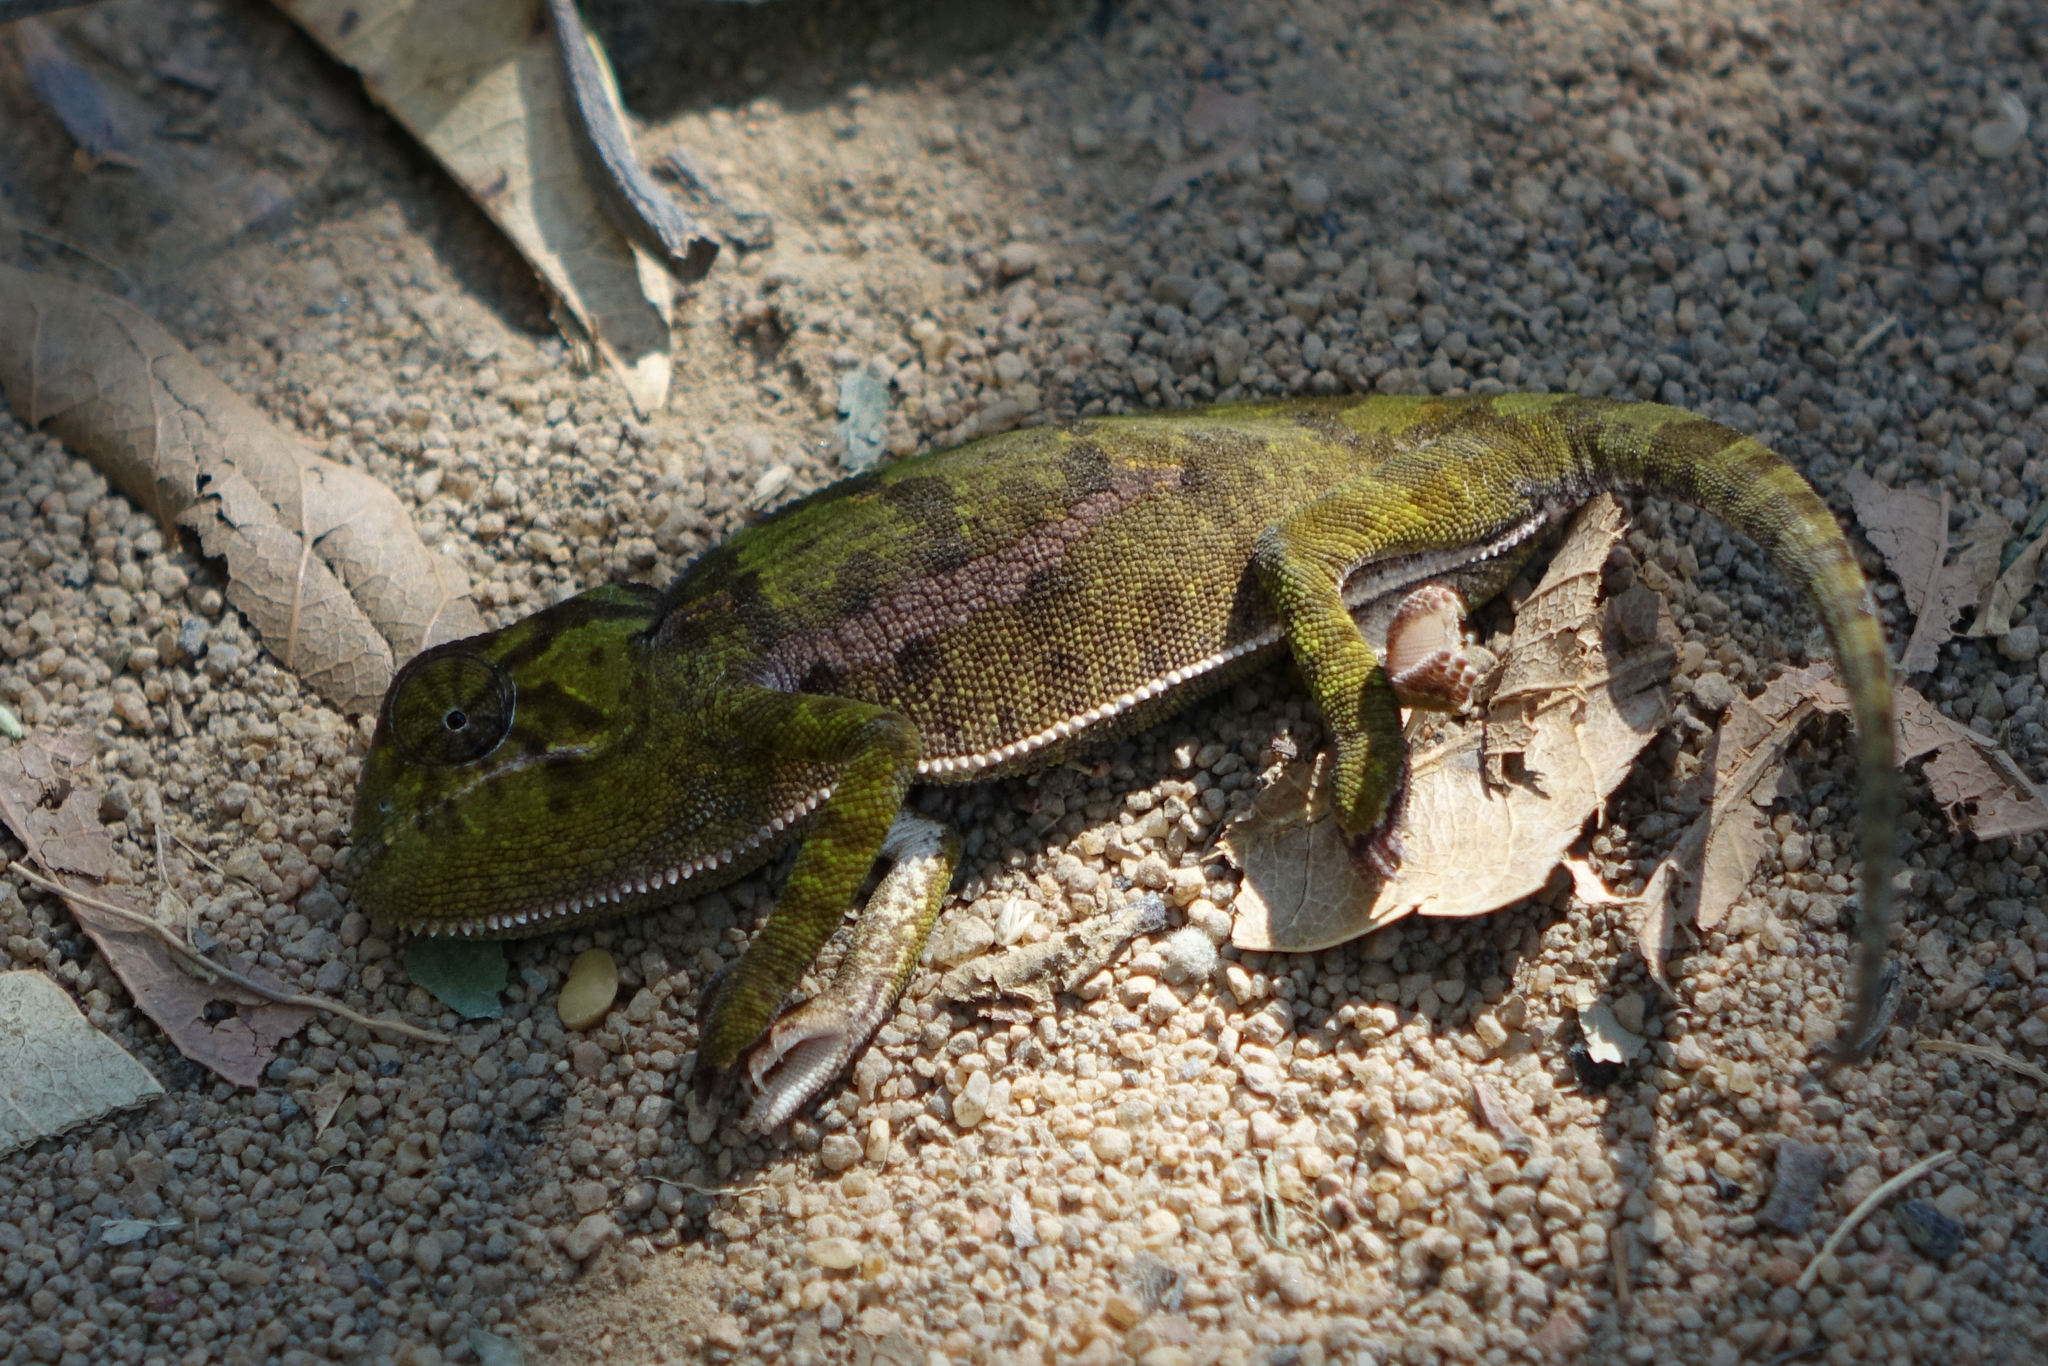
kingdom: Animalia
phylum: Chordata
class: Squamata
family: Chamaeleonidae
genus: Chamaeleo
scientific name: Chamaeleo dilepis
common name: Flapneck chameleon
